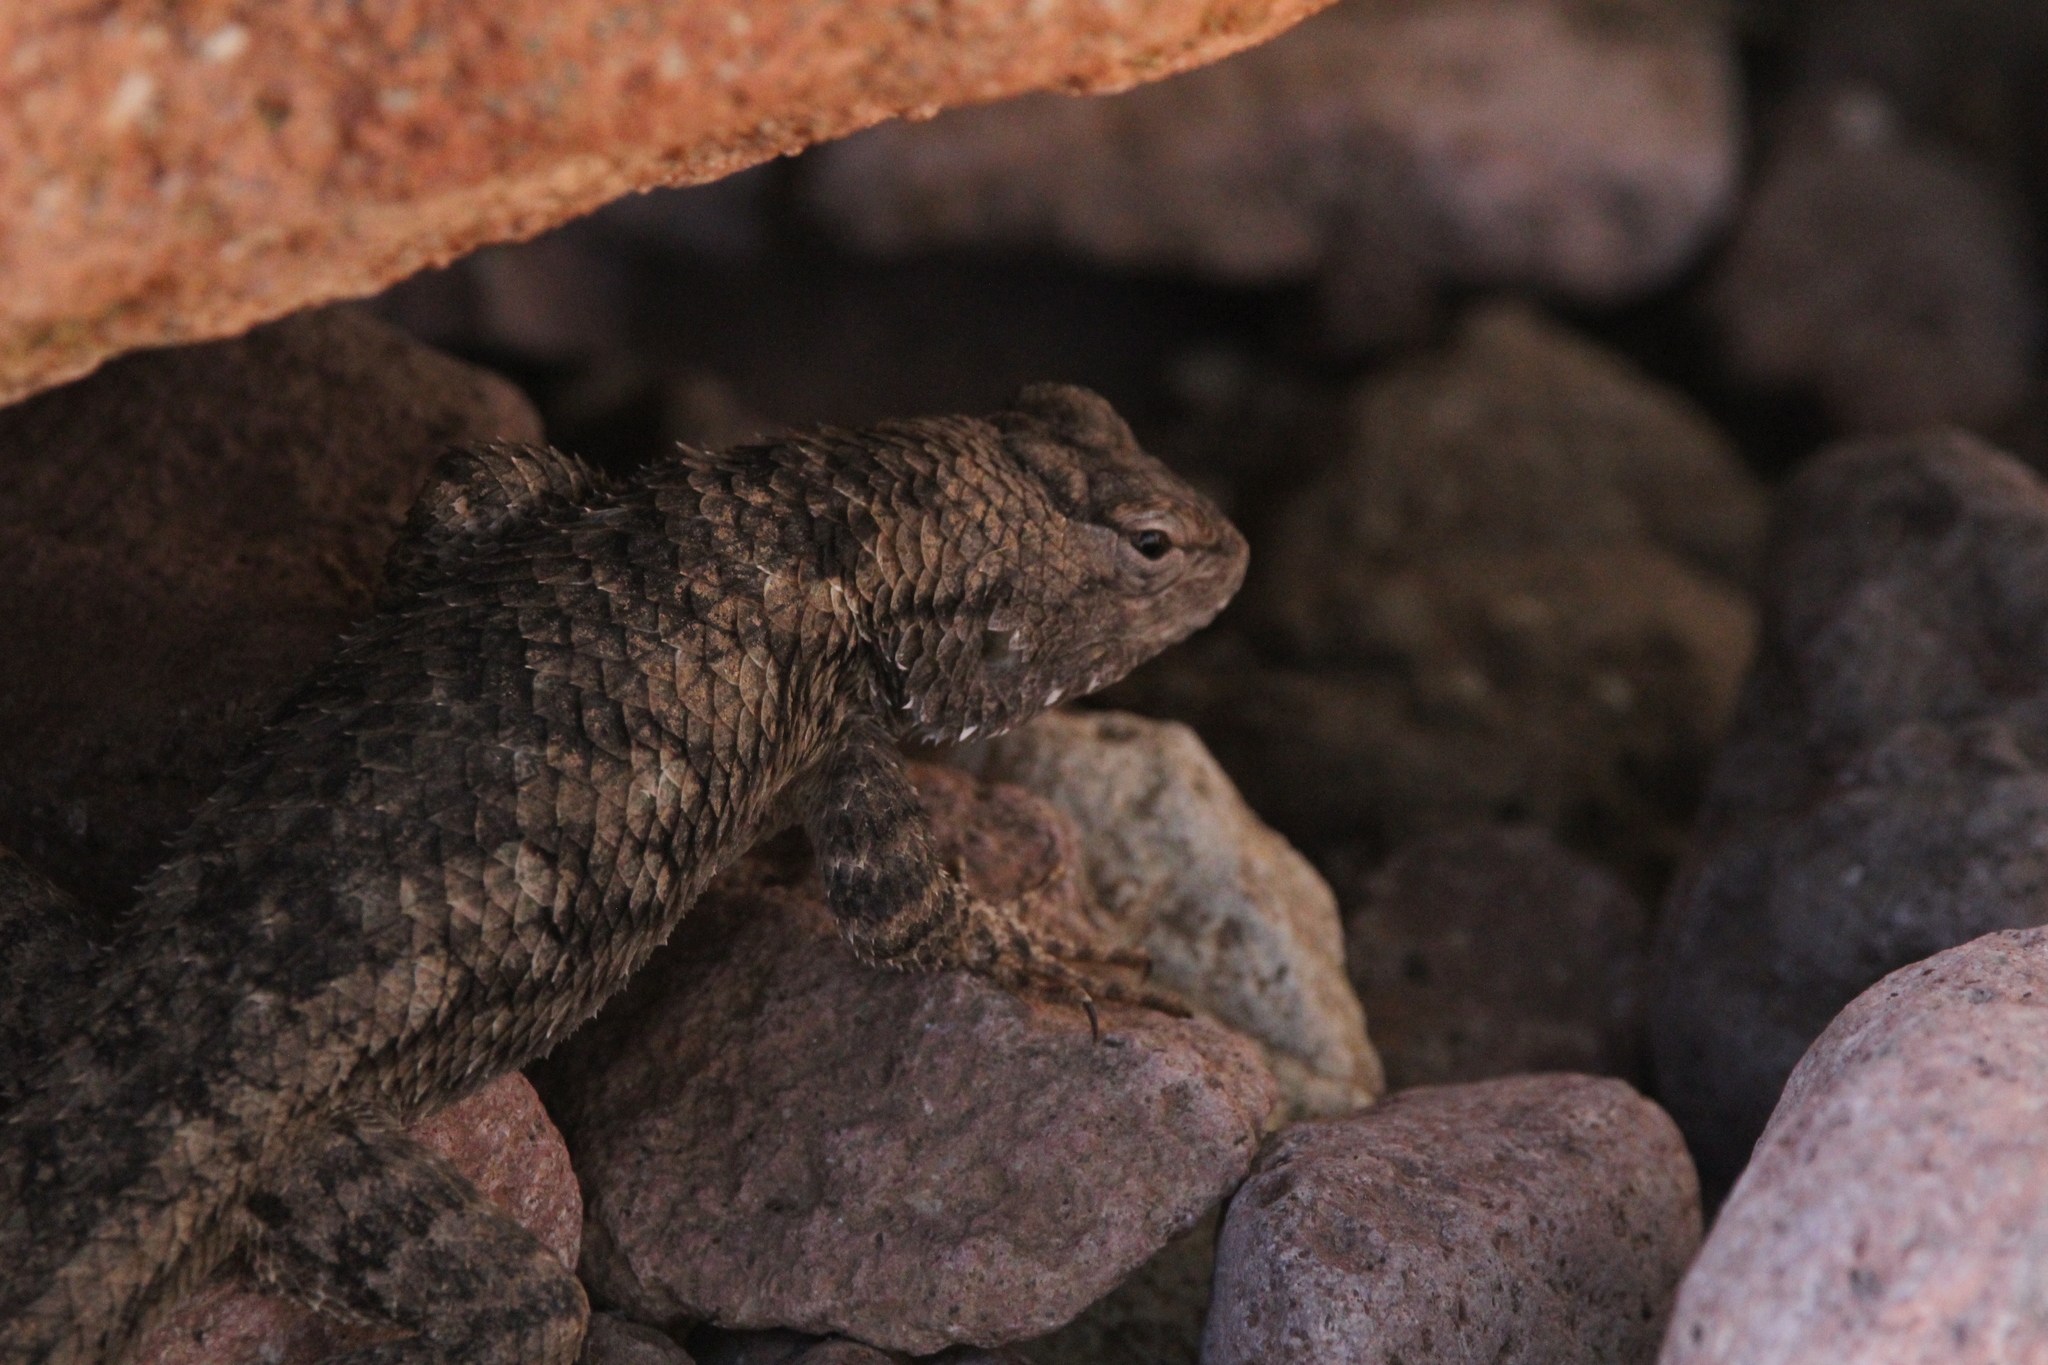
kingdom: Animalia
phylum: Chordata
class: Squamata
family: Phrynosomatidae
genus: Sceloporus
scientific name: Sceloporus clarkii
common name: Clark's spiny lizard
